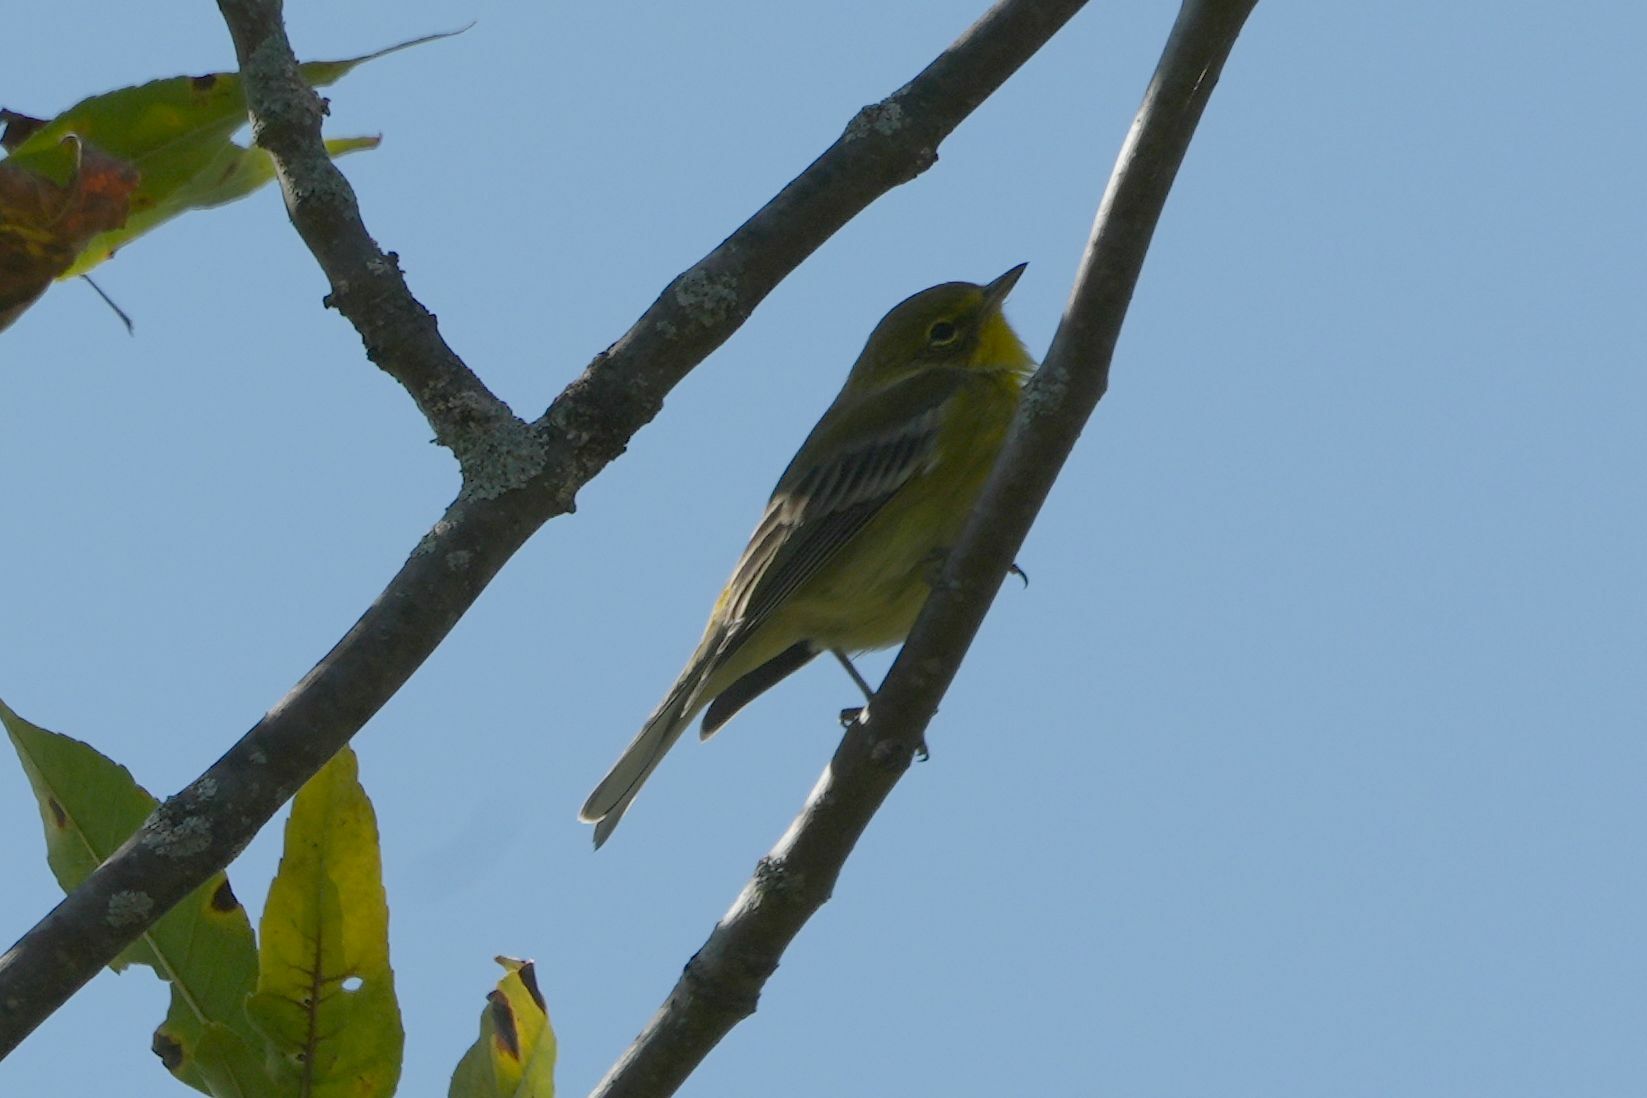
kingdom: Animalia
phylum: Chordata
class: Aves
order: Passeriformes
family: Parulidae
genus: Setophaga
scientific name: Setophaga pinus
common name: Pine warbler
